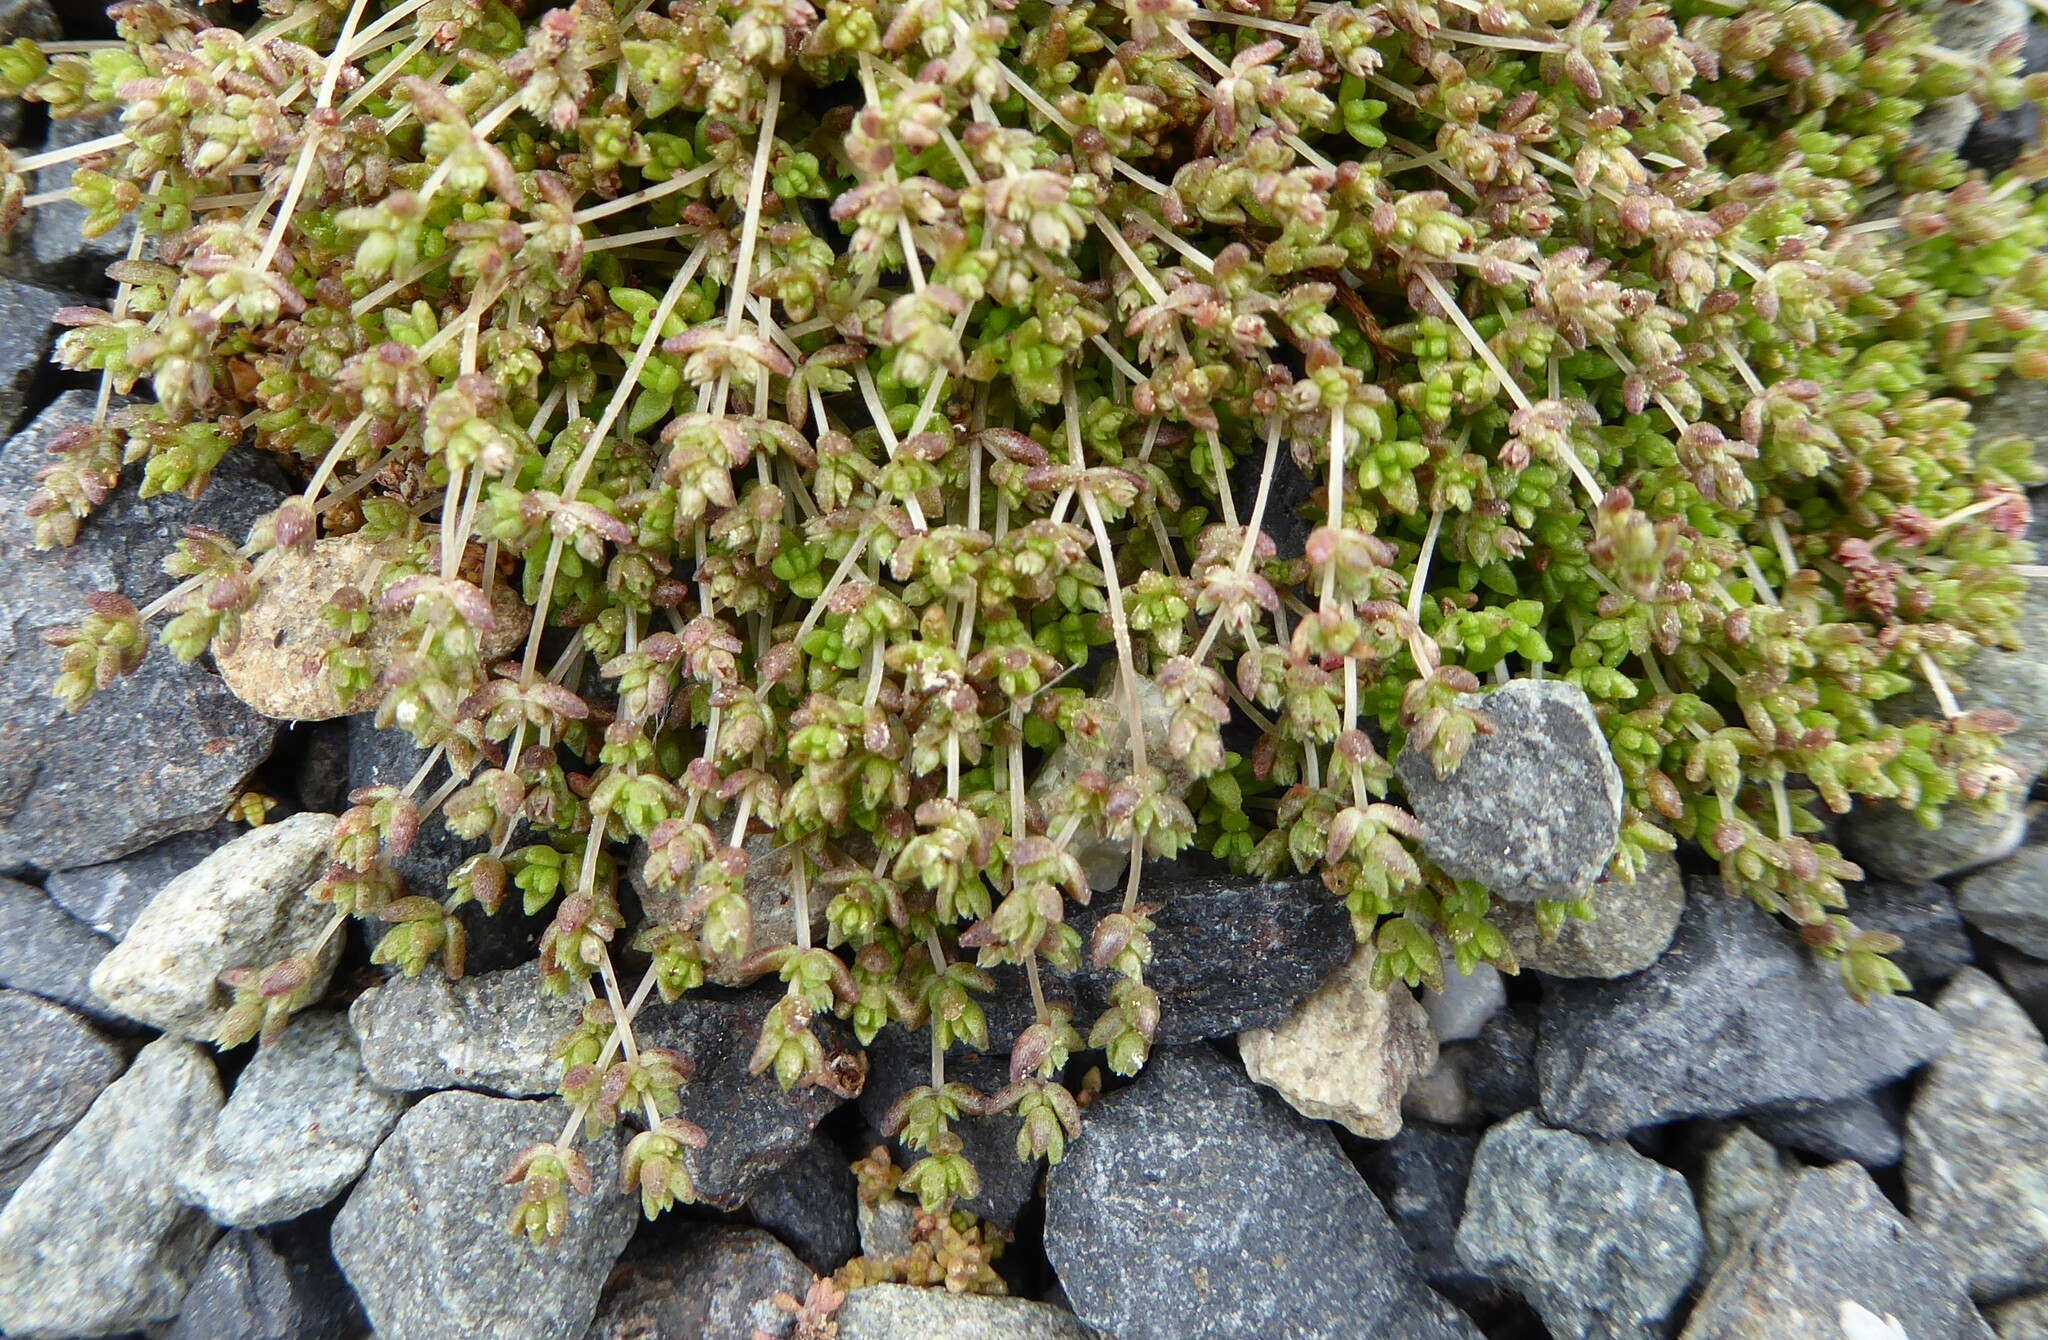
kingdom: Plantae
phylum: Tracheophyta
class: Magnoliopsida
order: Saxifragales
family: Crassulaceae
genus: Crassula
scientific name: Crassula mataikona
